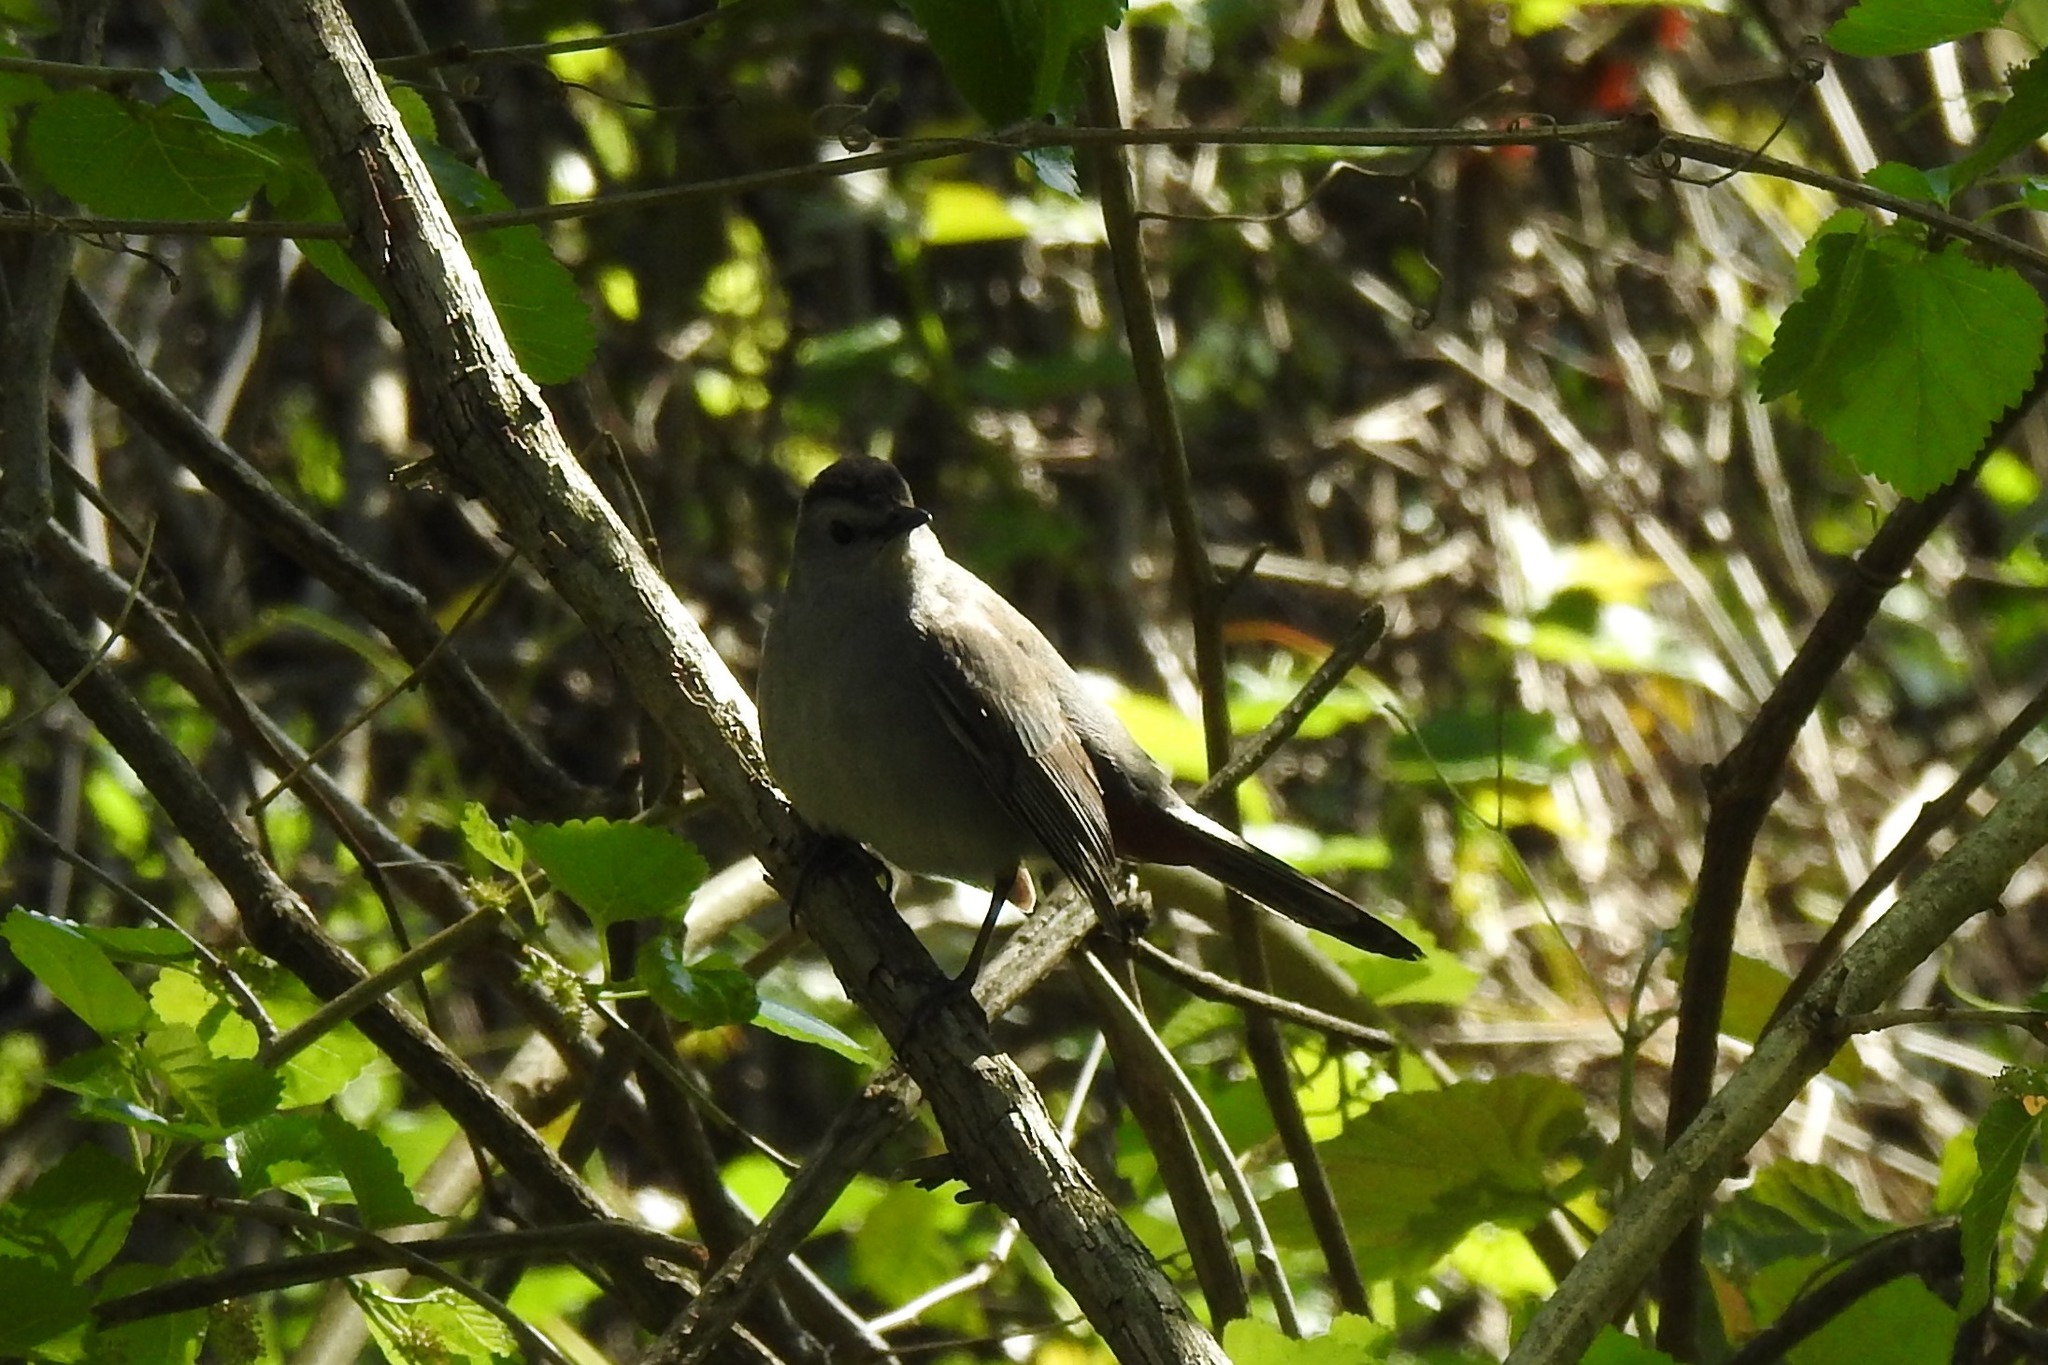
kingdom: Animalia
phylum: Chordata
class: Aves
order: Passeriformes
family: Mimidae
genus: Dumetella
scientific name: Dumetella carolinensis
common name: Gray catbird
